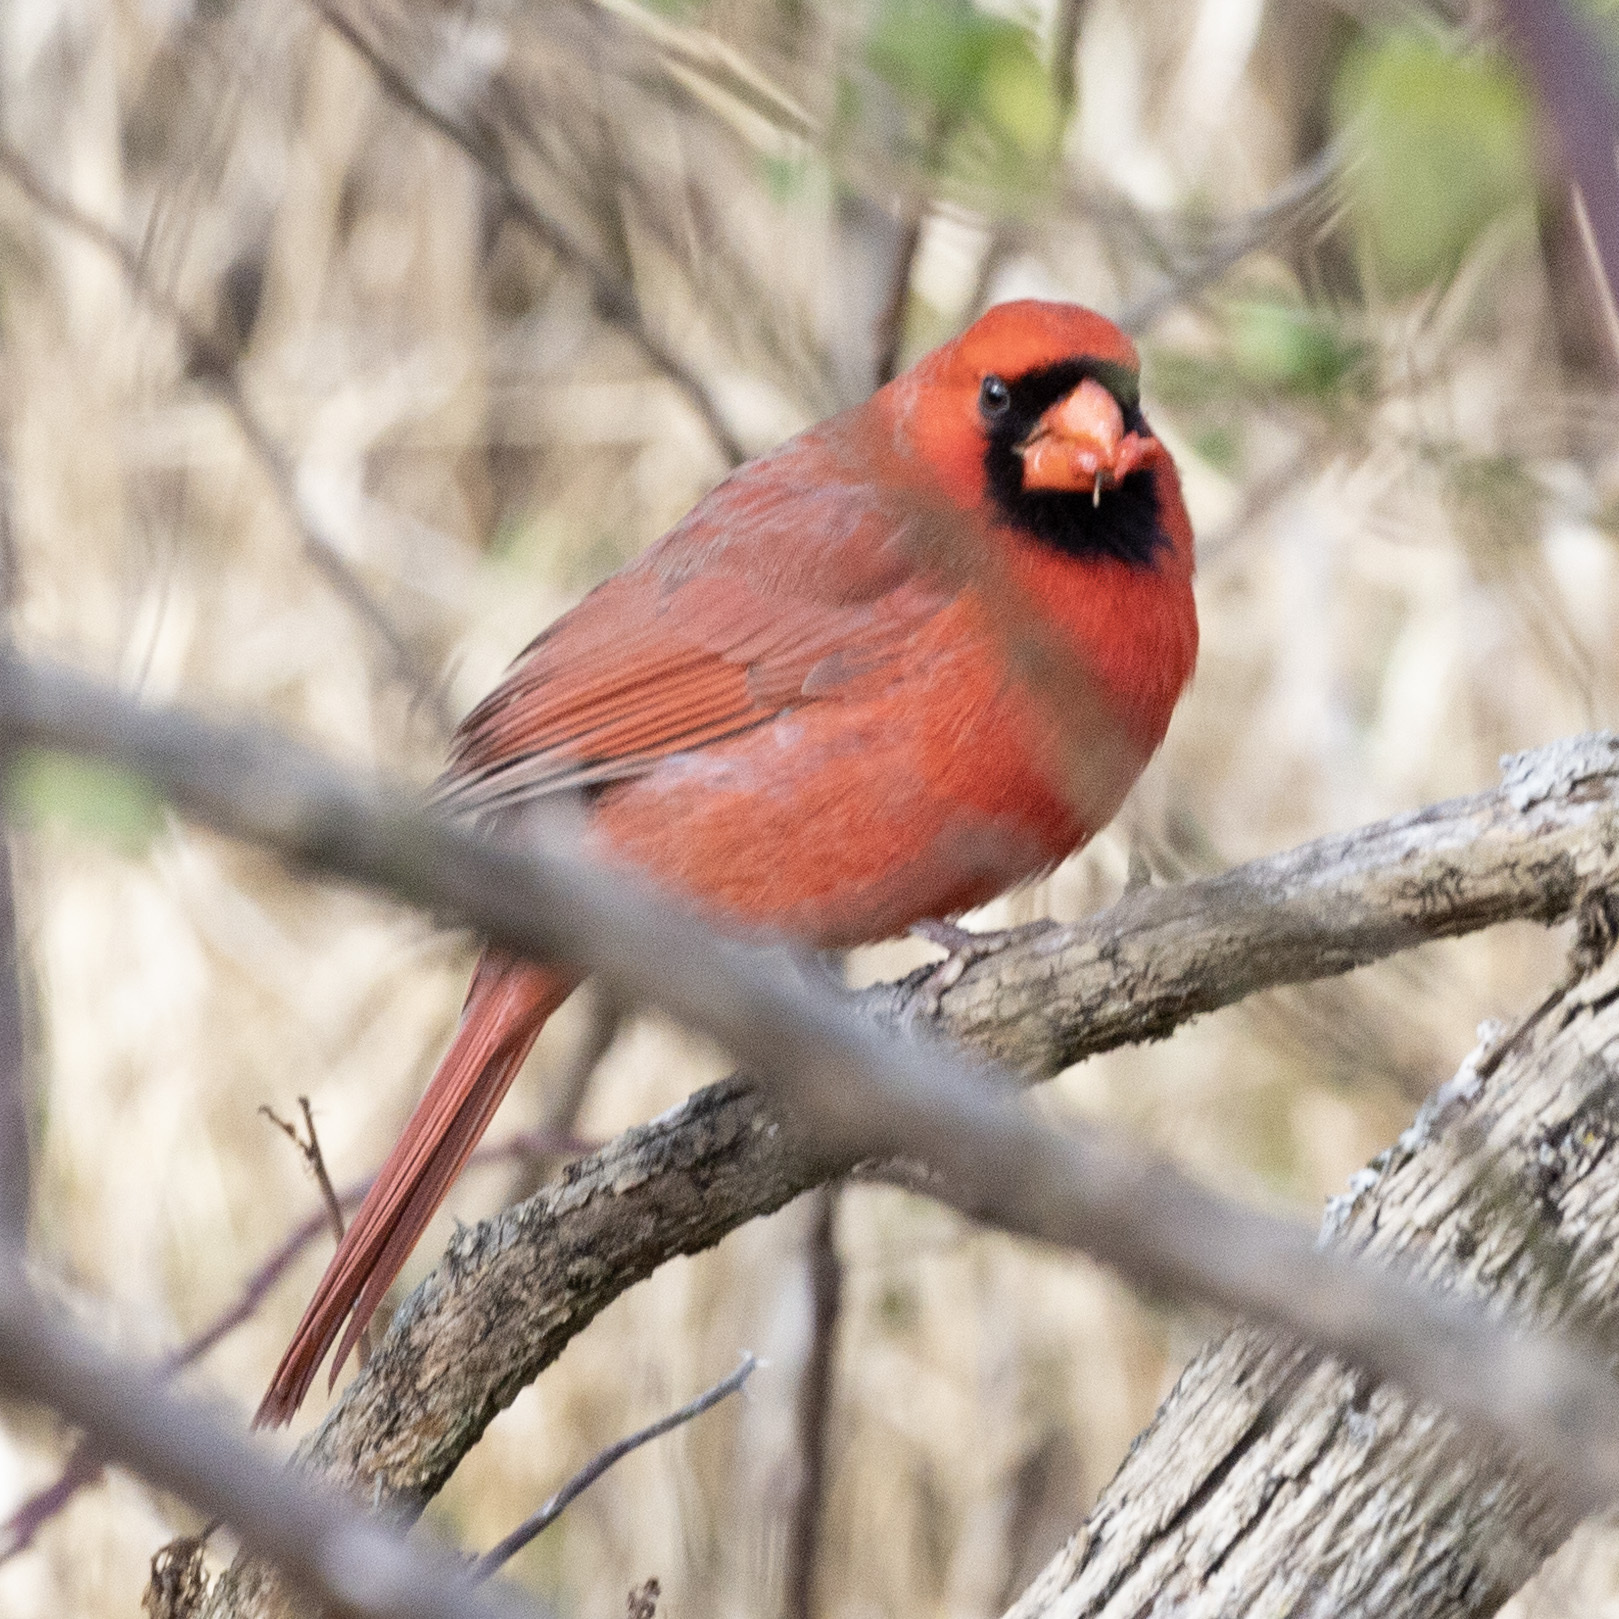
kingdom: Animalia
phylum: Chordata
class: Aves
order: Passeriformes
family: Cardinalidae
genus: Cardinalis
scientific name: Cardinalis cardinalis
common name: Northern cardinal
